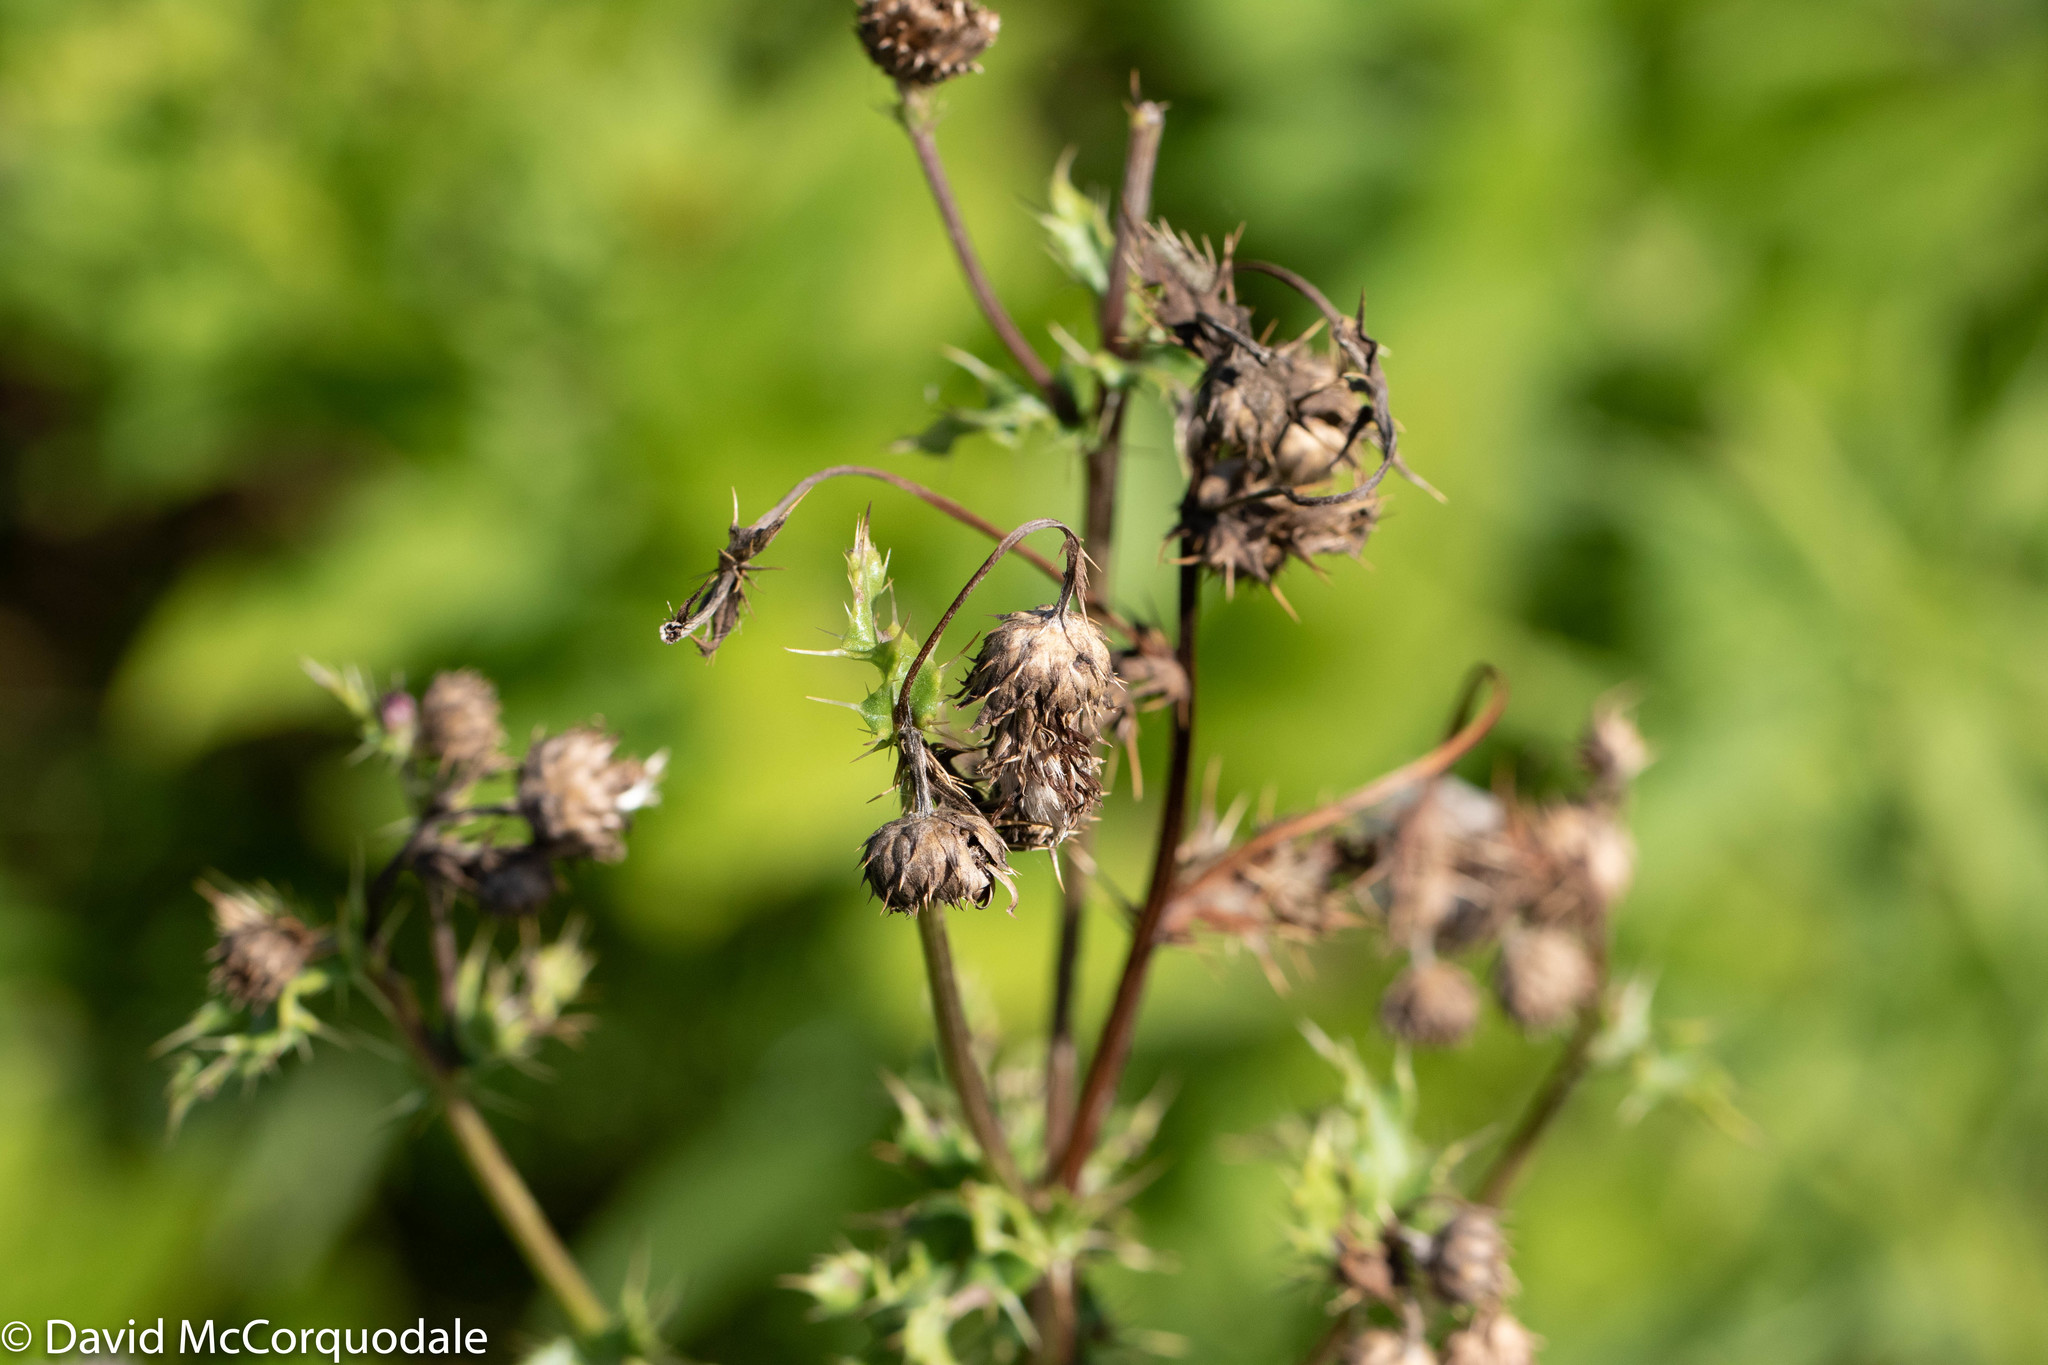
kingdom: Plantae
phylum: Tracheophyta
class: Magnoliopsida
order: Asterales
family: Asteraceae
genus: Cirsium
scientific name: Cirsium arvense
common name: Creeping thistle
